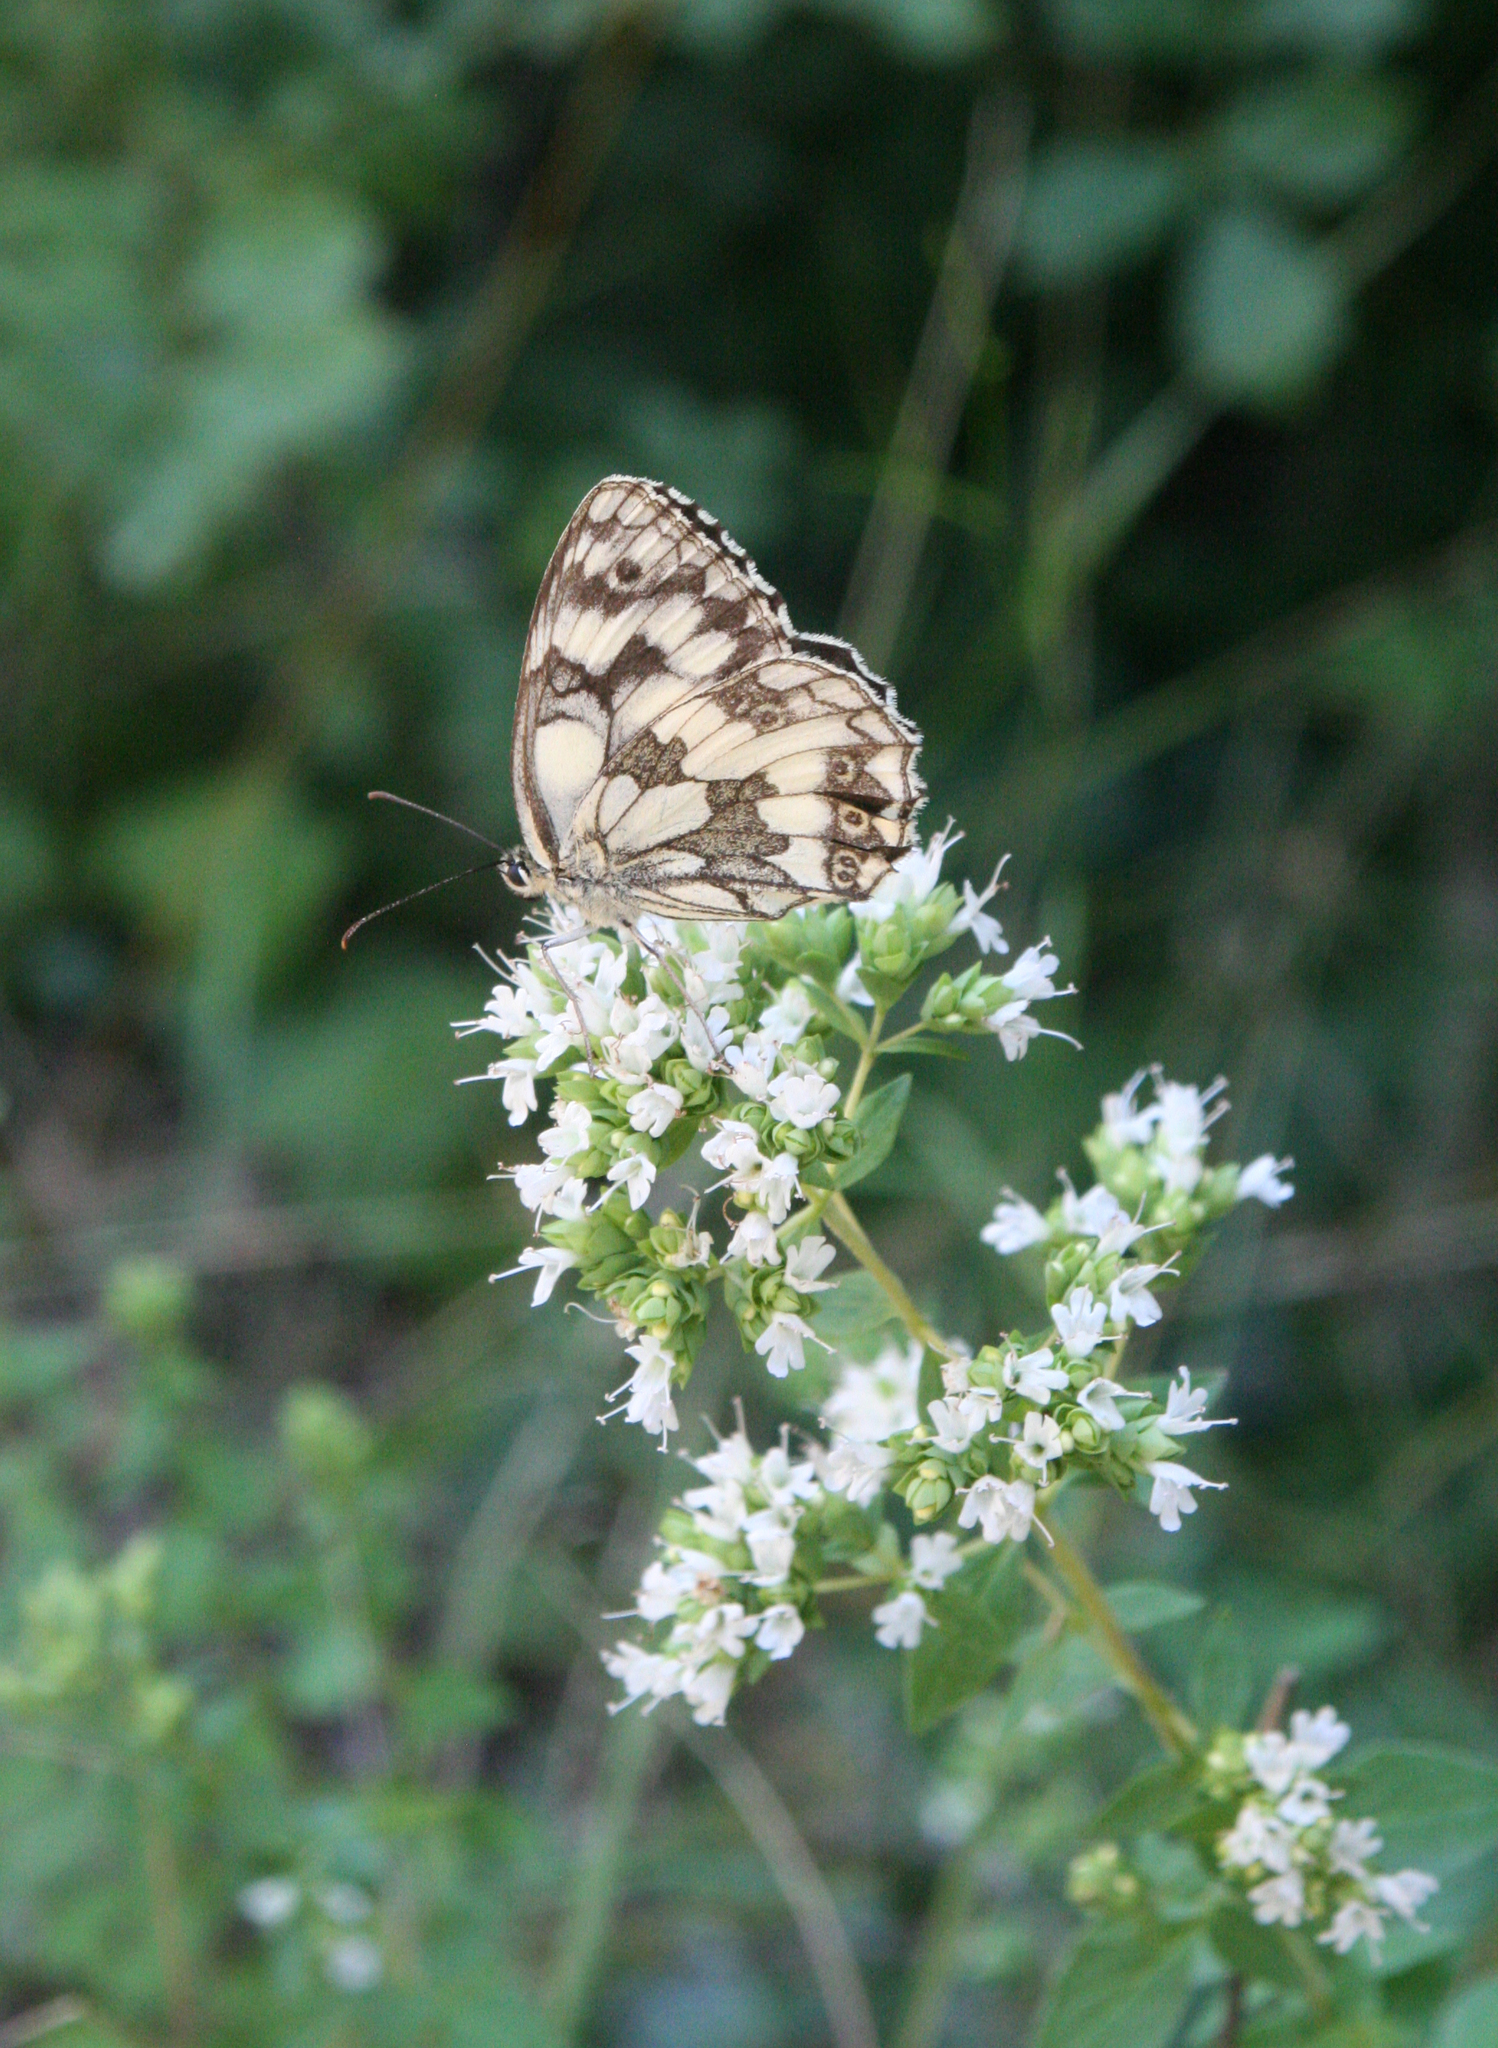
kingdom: Plantae
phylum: Tracheophyta
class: Magnoliopsida
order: Lamiales
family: Lamiaceae
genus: Origanum
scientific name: Origanum vulgare
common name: Wild marjoram
